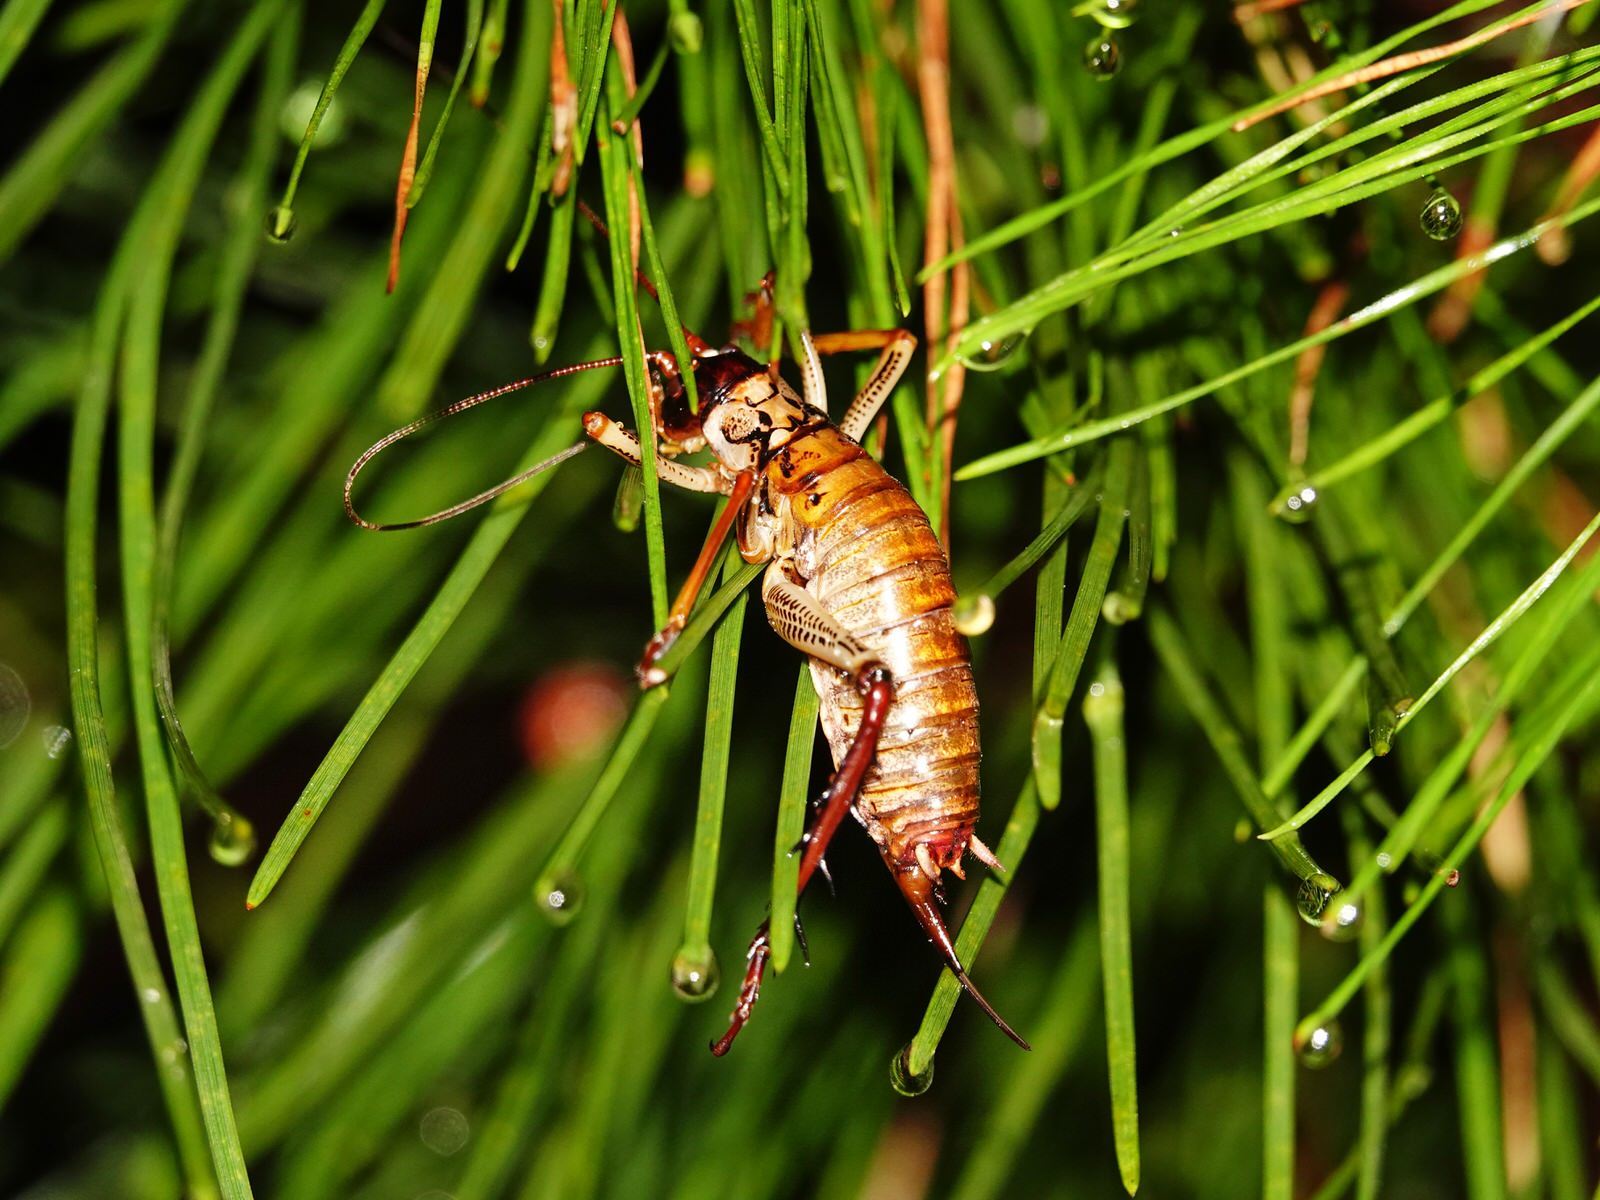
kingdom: Animalia
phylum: Arthropoda
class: Insecta
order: Orthoptera
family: Anostostomatidae
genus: Hemideina
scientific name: Hemideina thoracica
